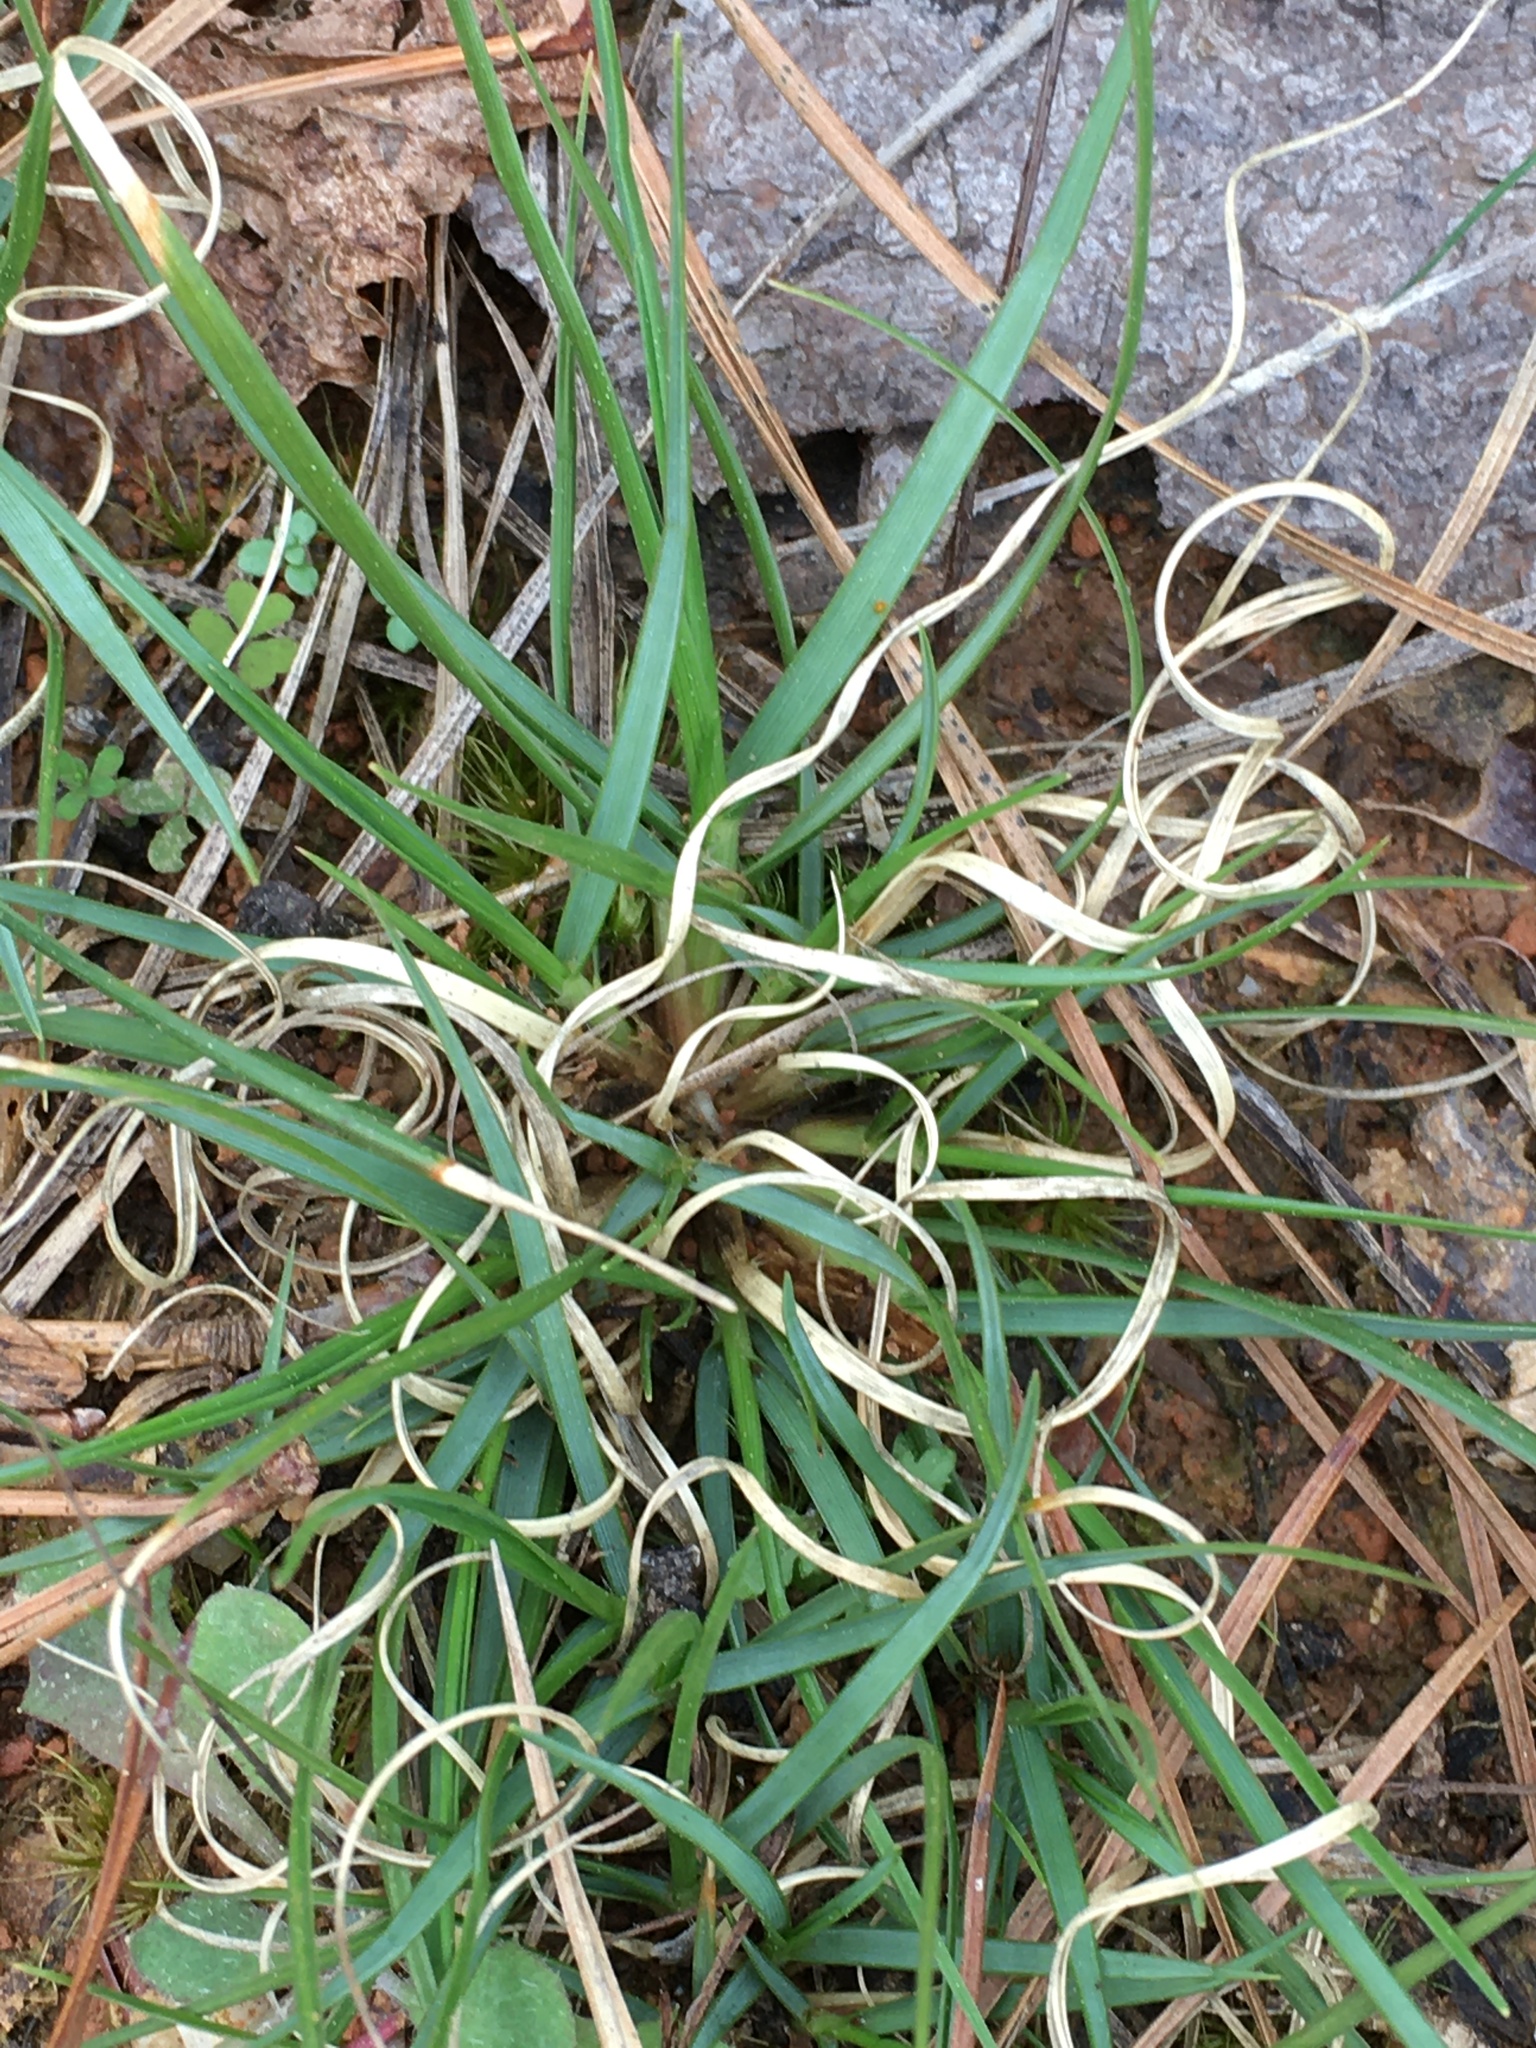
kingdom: Plantae
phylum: Tracheophyta
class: Liliopsida
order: Poales
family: Poaceae
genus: Danthonia
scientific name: Danthonia spicata
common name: Common wild oatgrass
